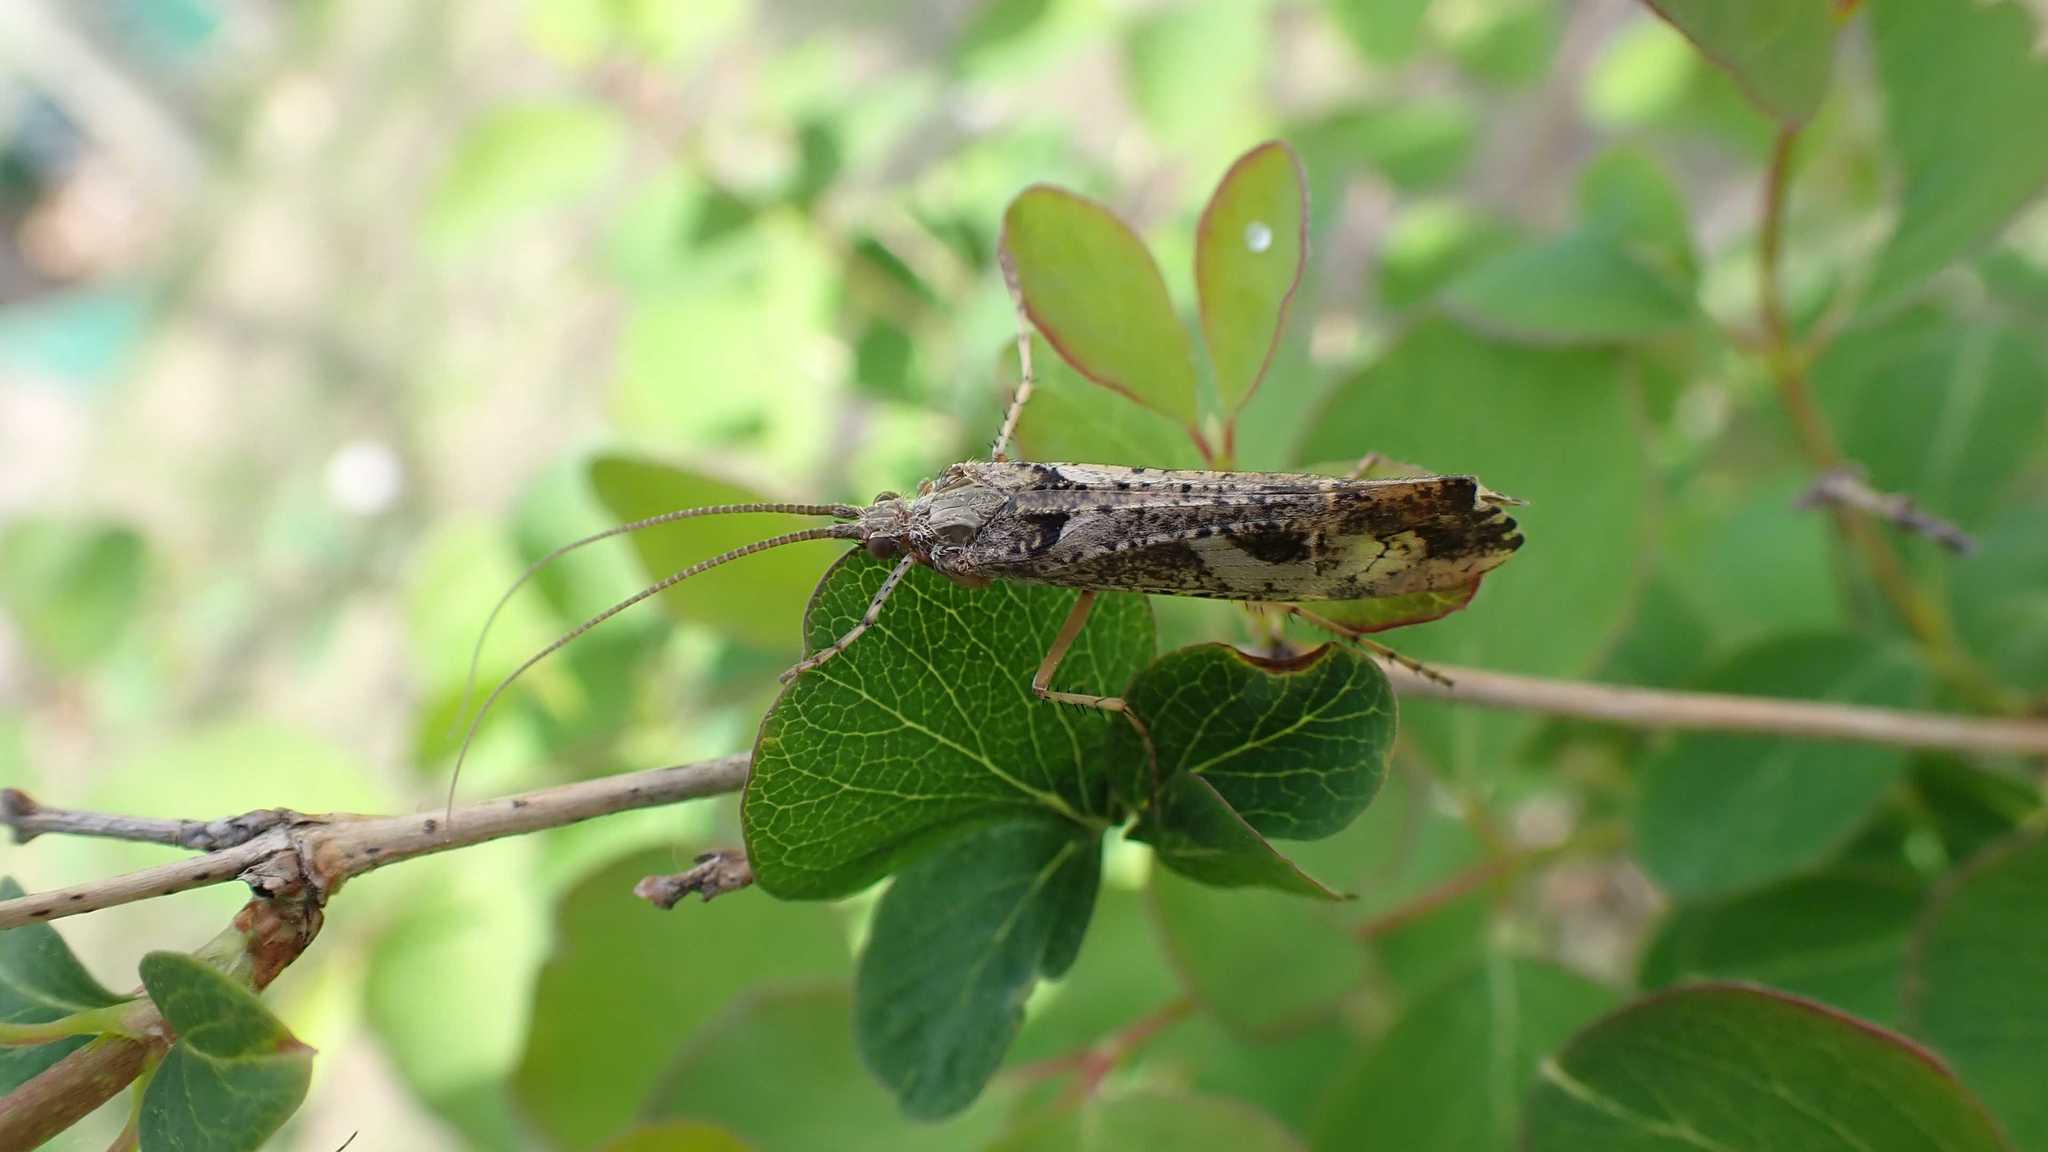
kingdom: Animalia
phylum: Arthropoda
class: Insecta
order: Trichoptera
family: Limnephilidae
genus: Glyphotaelius
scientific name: Glyphotaelius pellucidus
